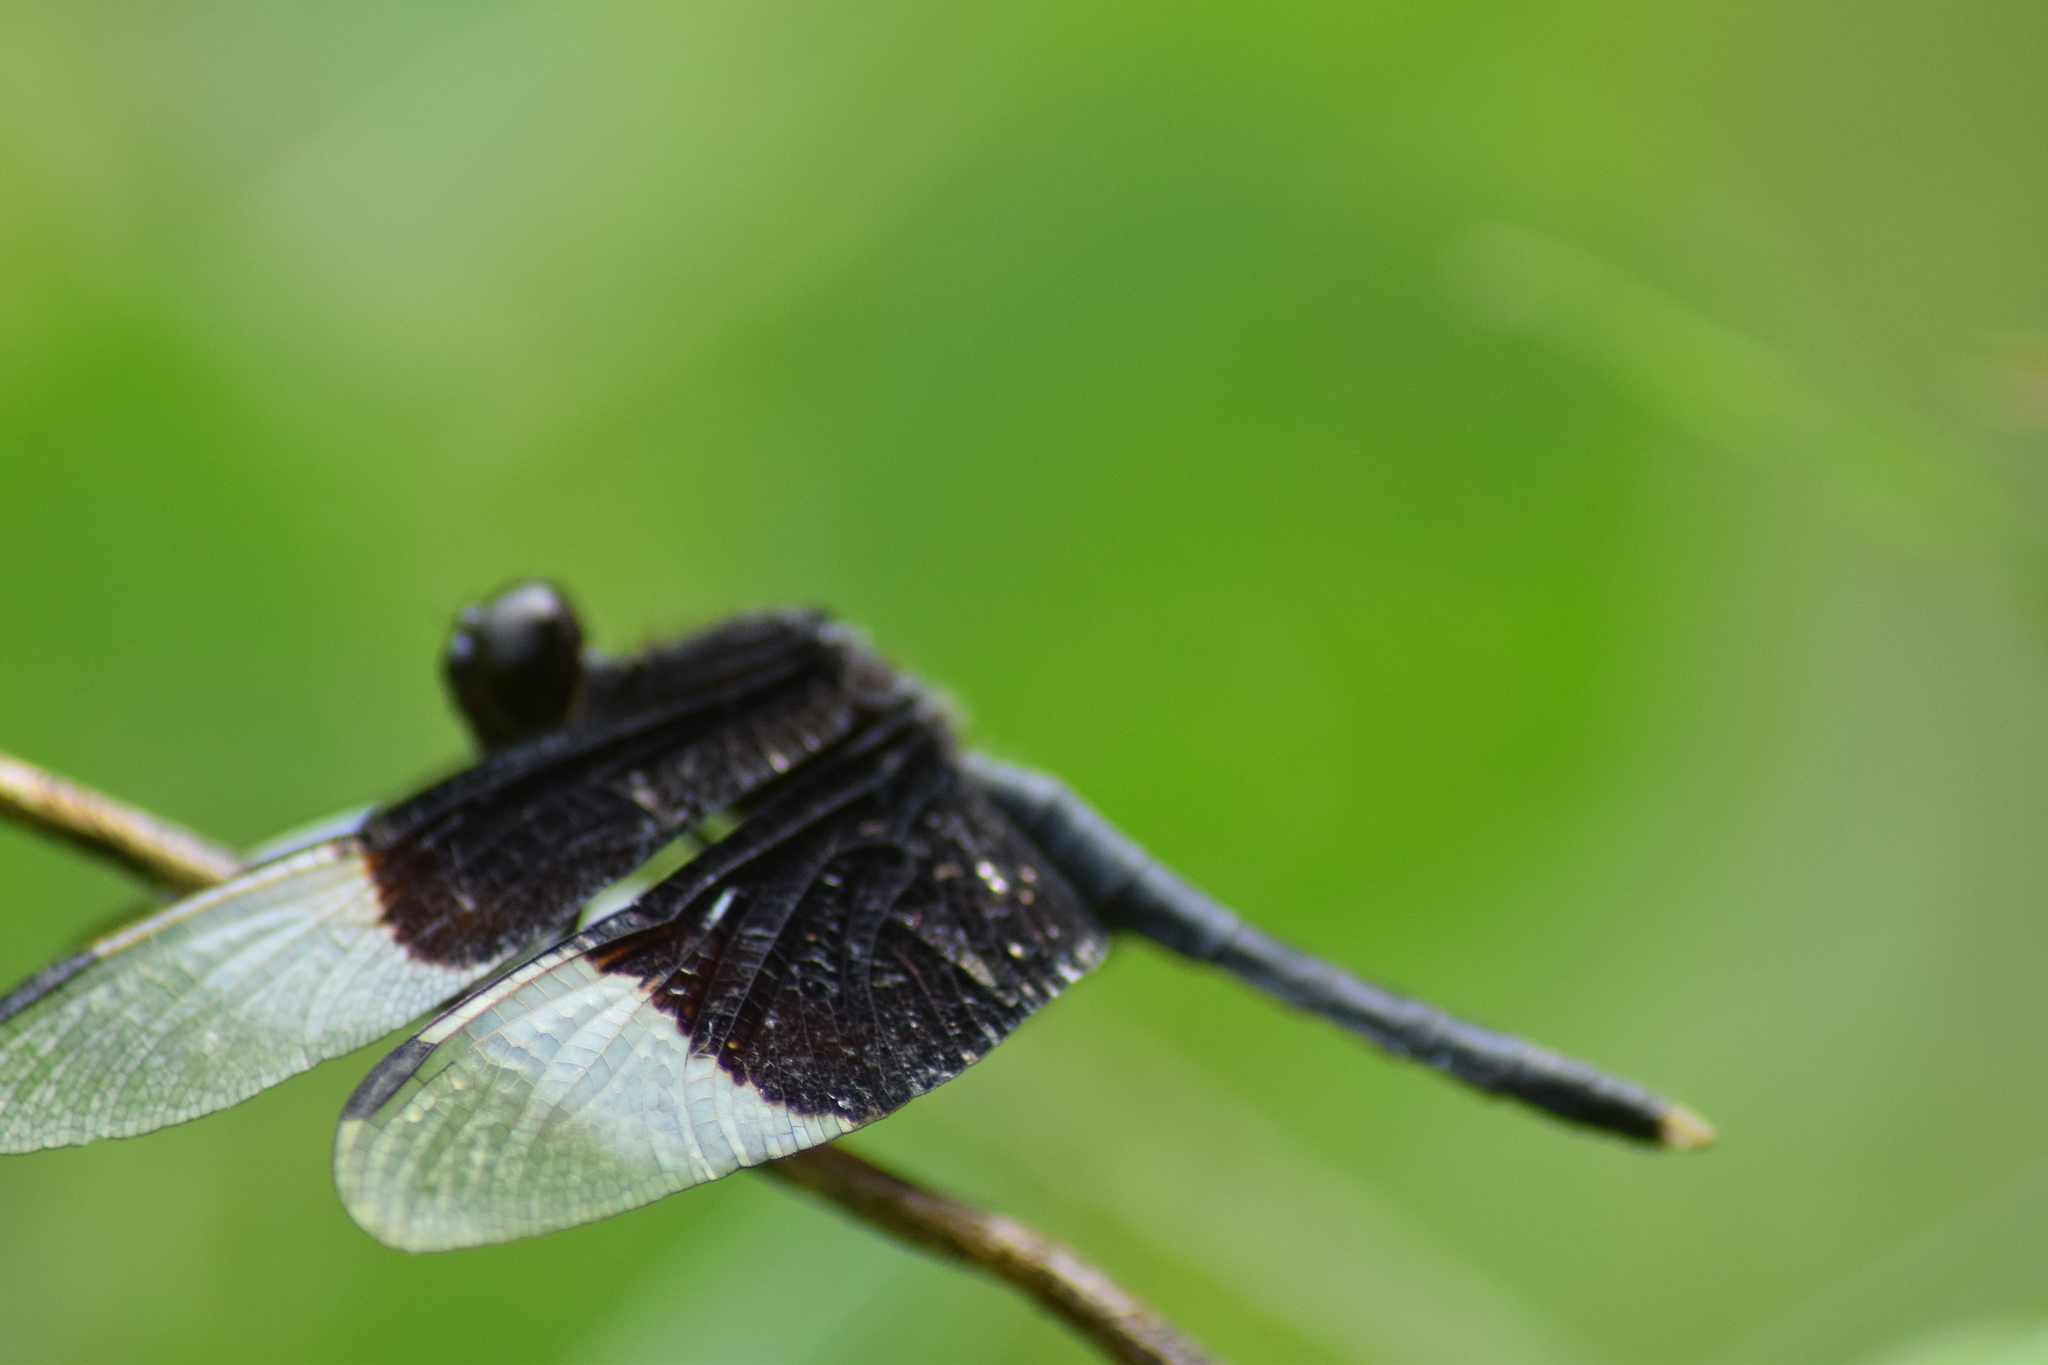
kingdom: Animalia
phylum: Arthropoda
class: Insecta
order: Odonata
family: Libellulidae
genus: Neurothemis
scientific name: Neurothemis tullia
